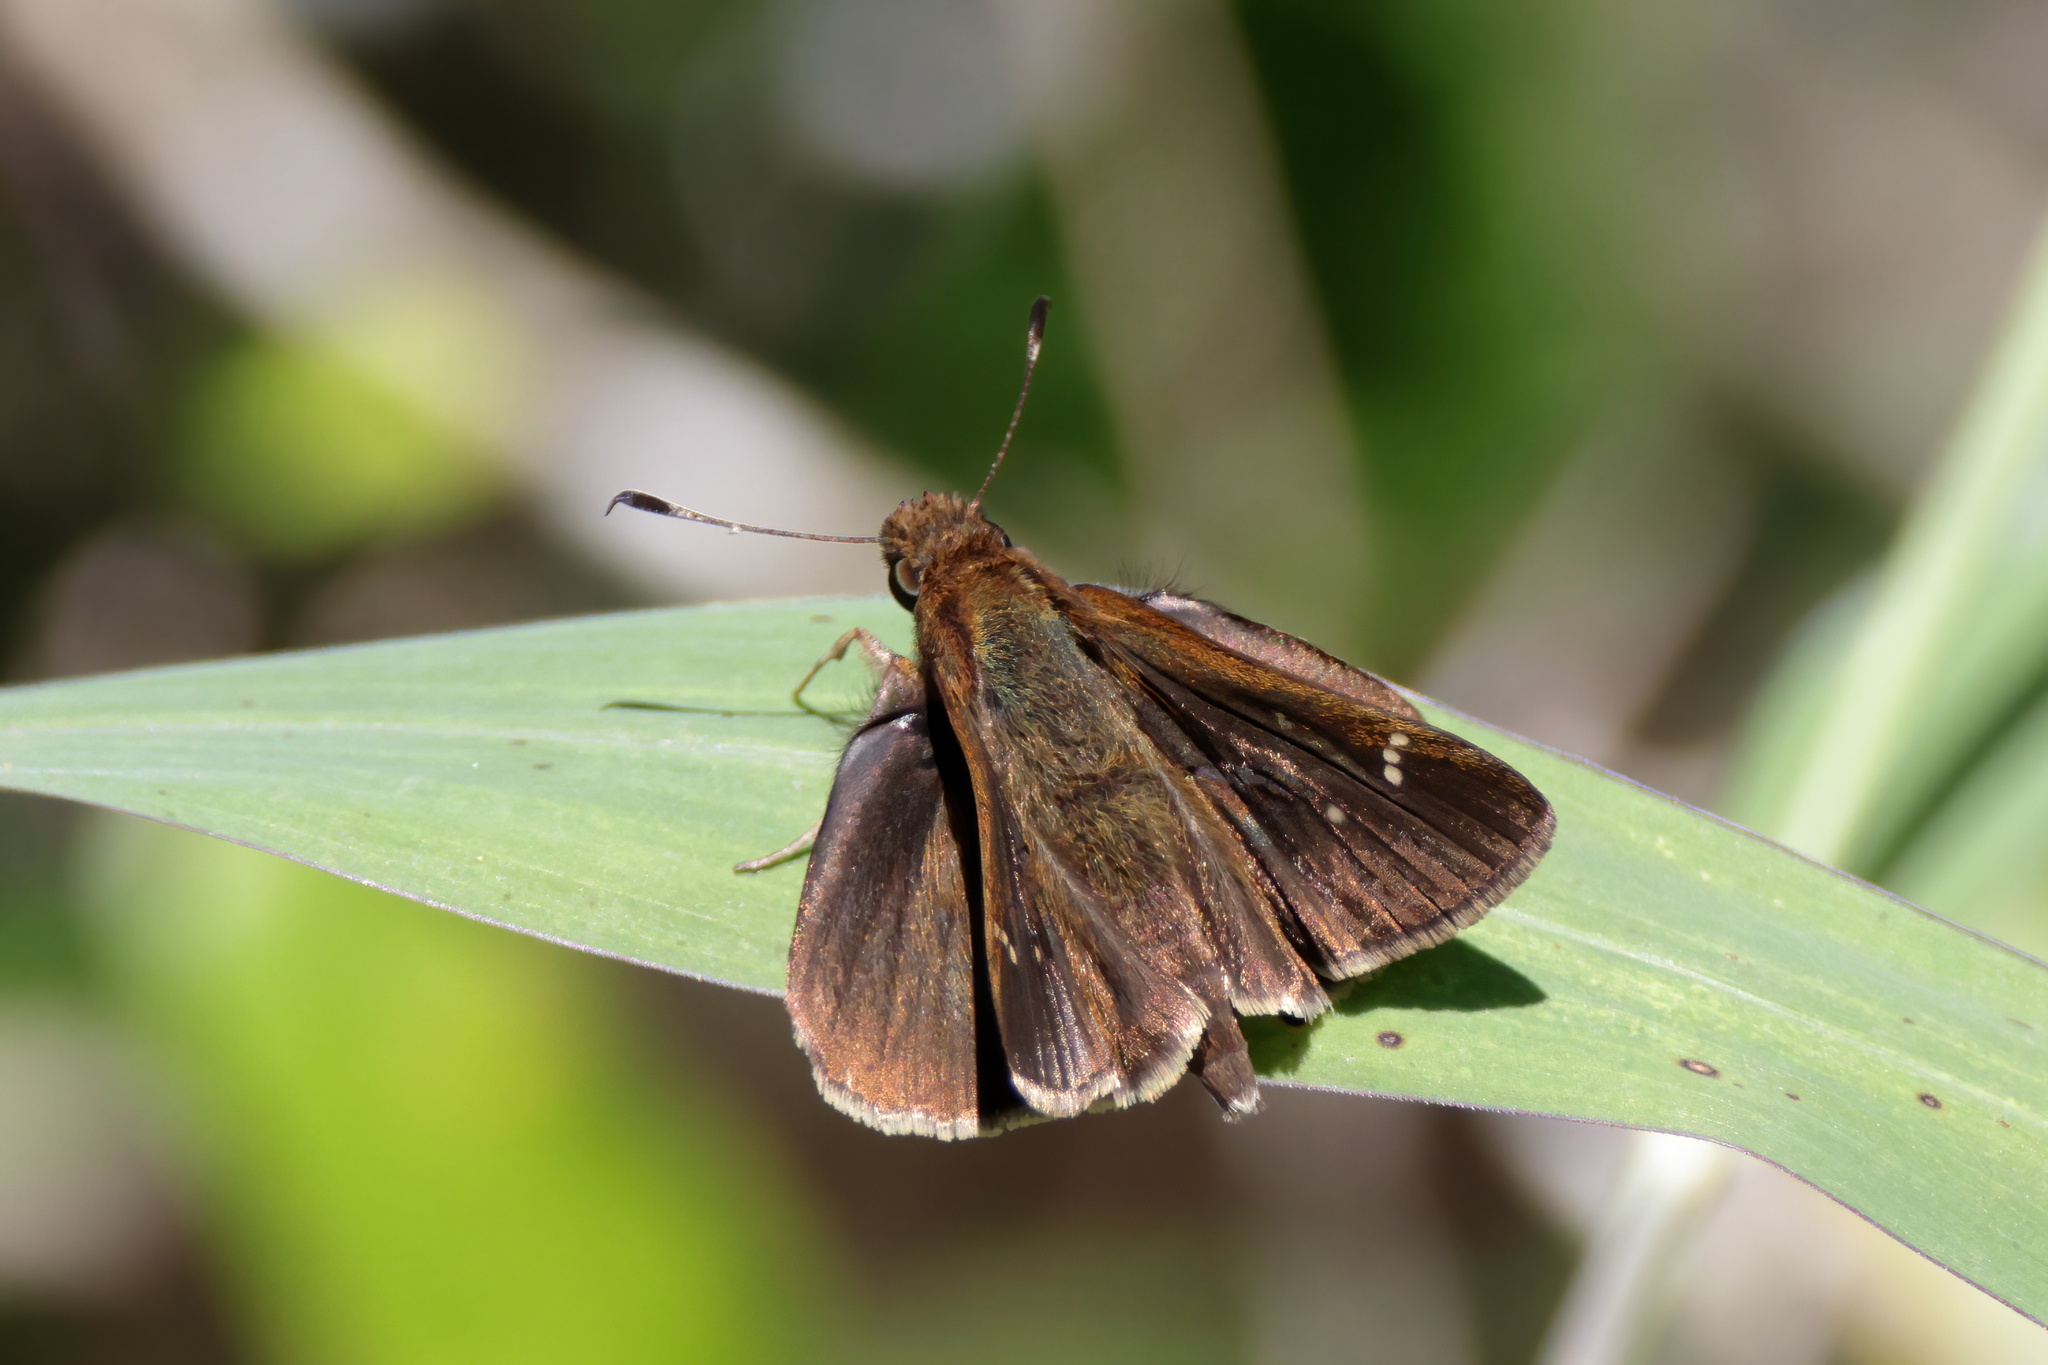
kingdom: Animalia
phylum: Arthropoda
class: Insecta
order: Lepidoptera
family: Hesperiidae
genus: Lerema
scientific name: Lerema accius
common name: Clouded skipper
